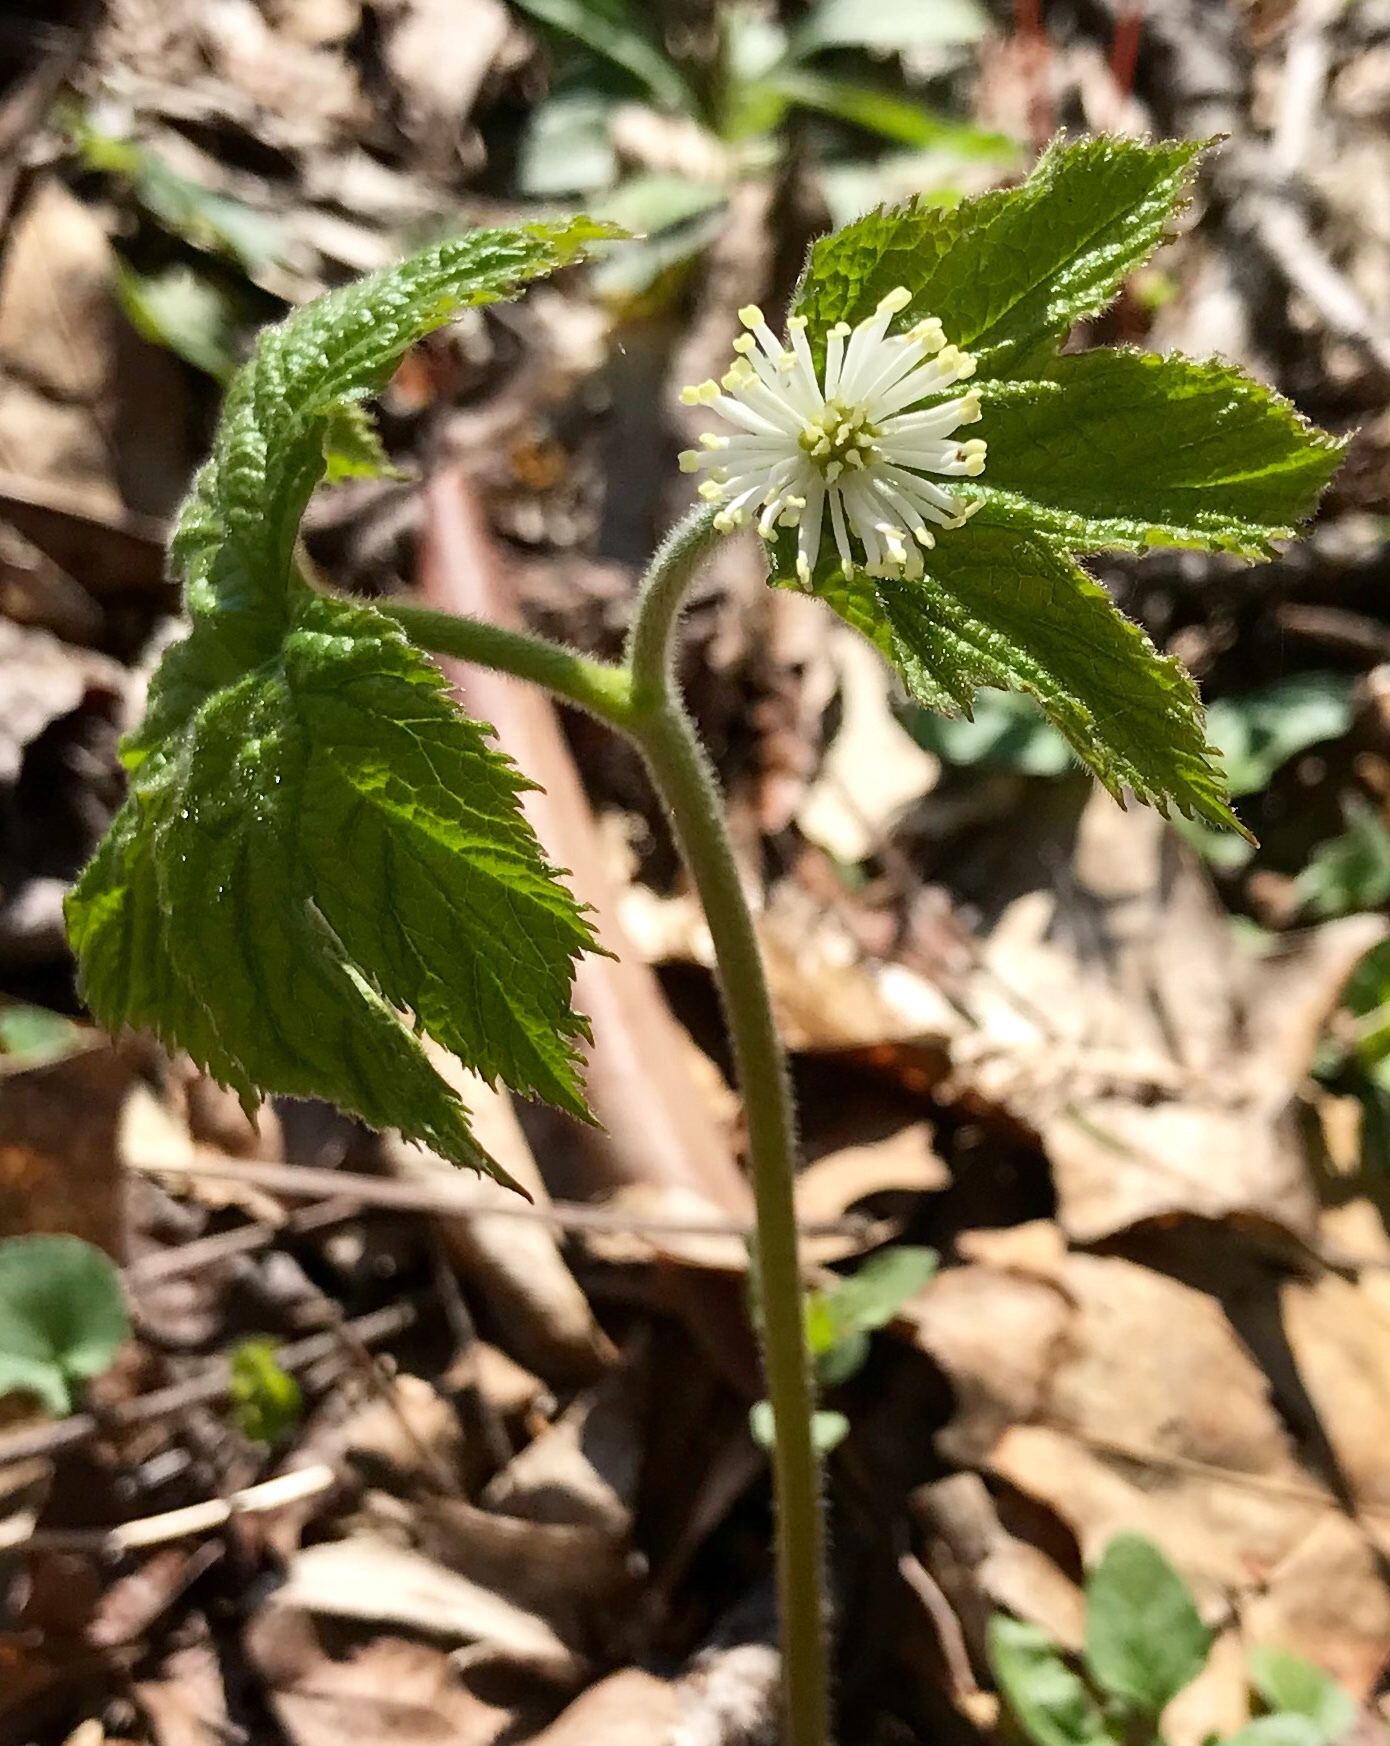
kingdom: Plantae
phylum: Tracheophyta
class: Magnoliopsida
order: Ranunculales
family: Ranunculaceae
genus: Hydrastis
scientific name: Hydrastis canadensis
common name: Goldenseal
